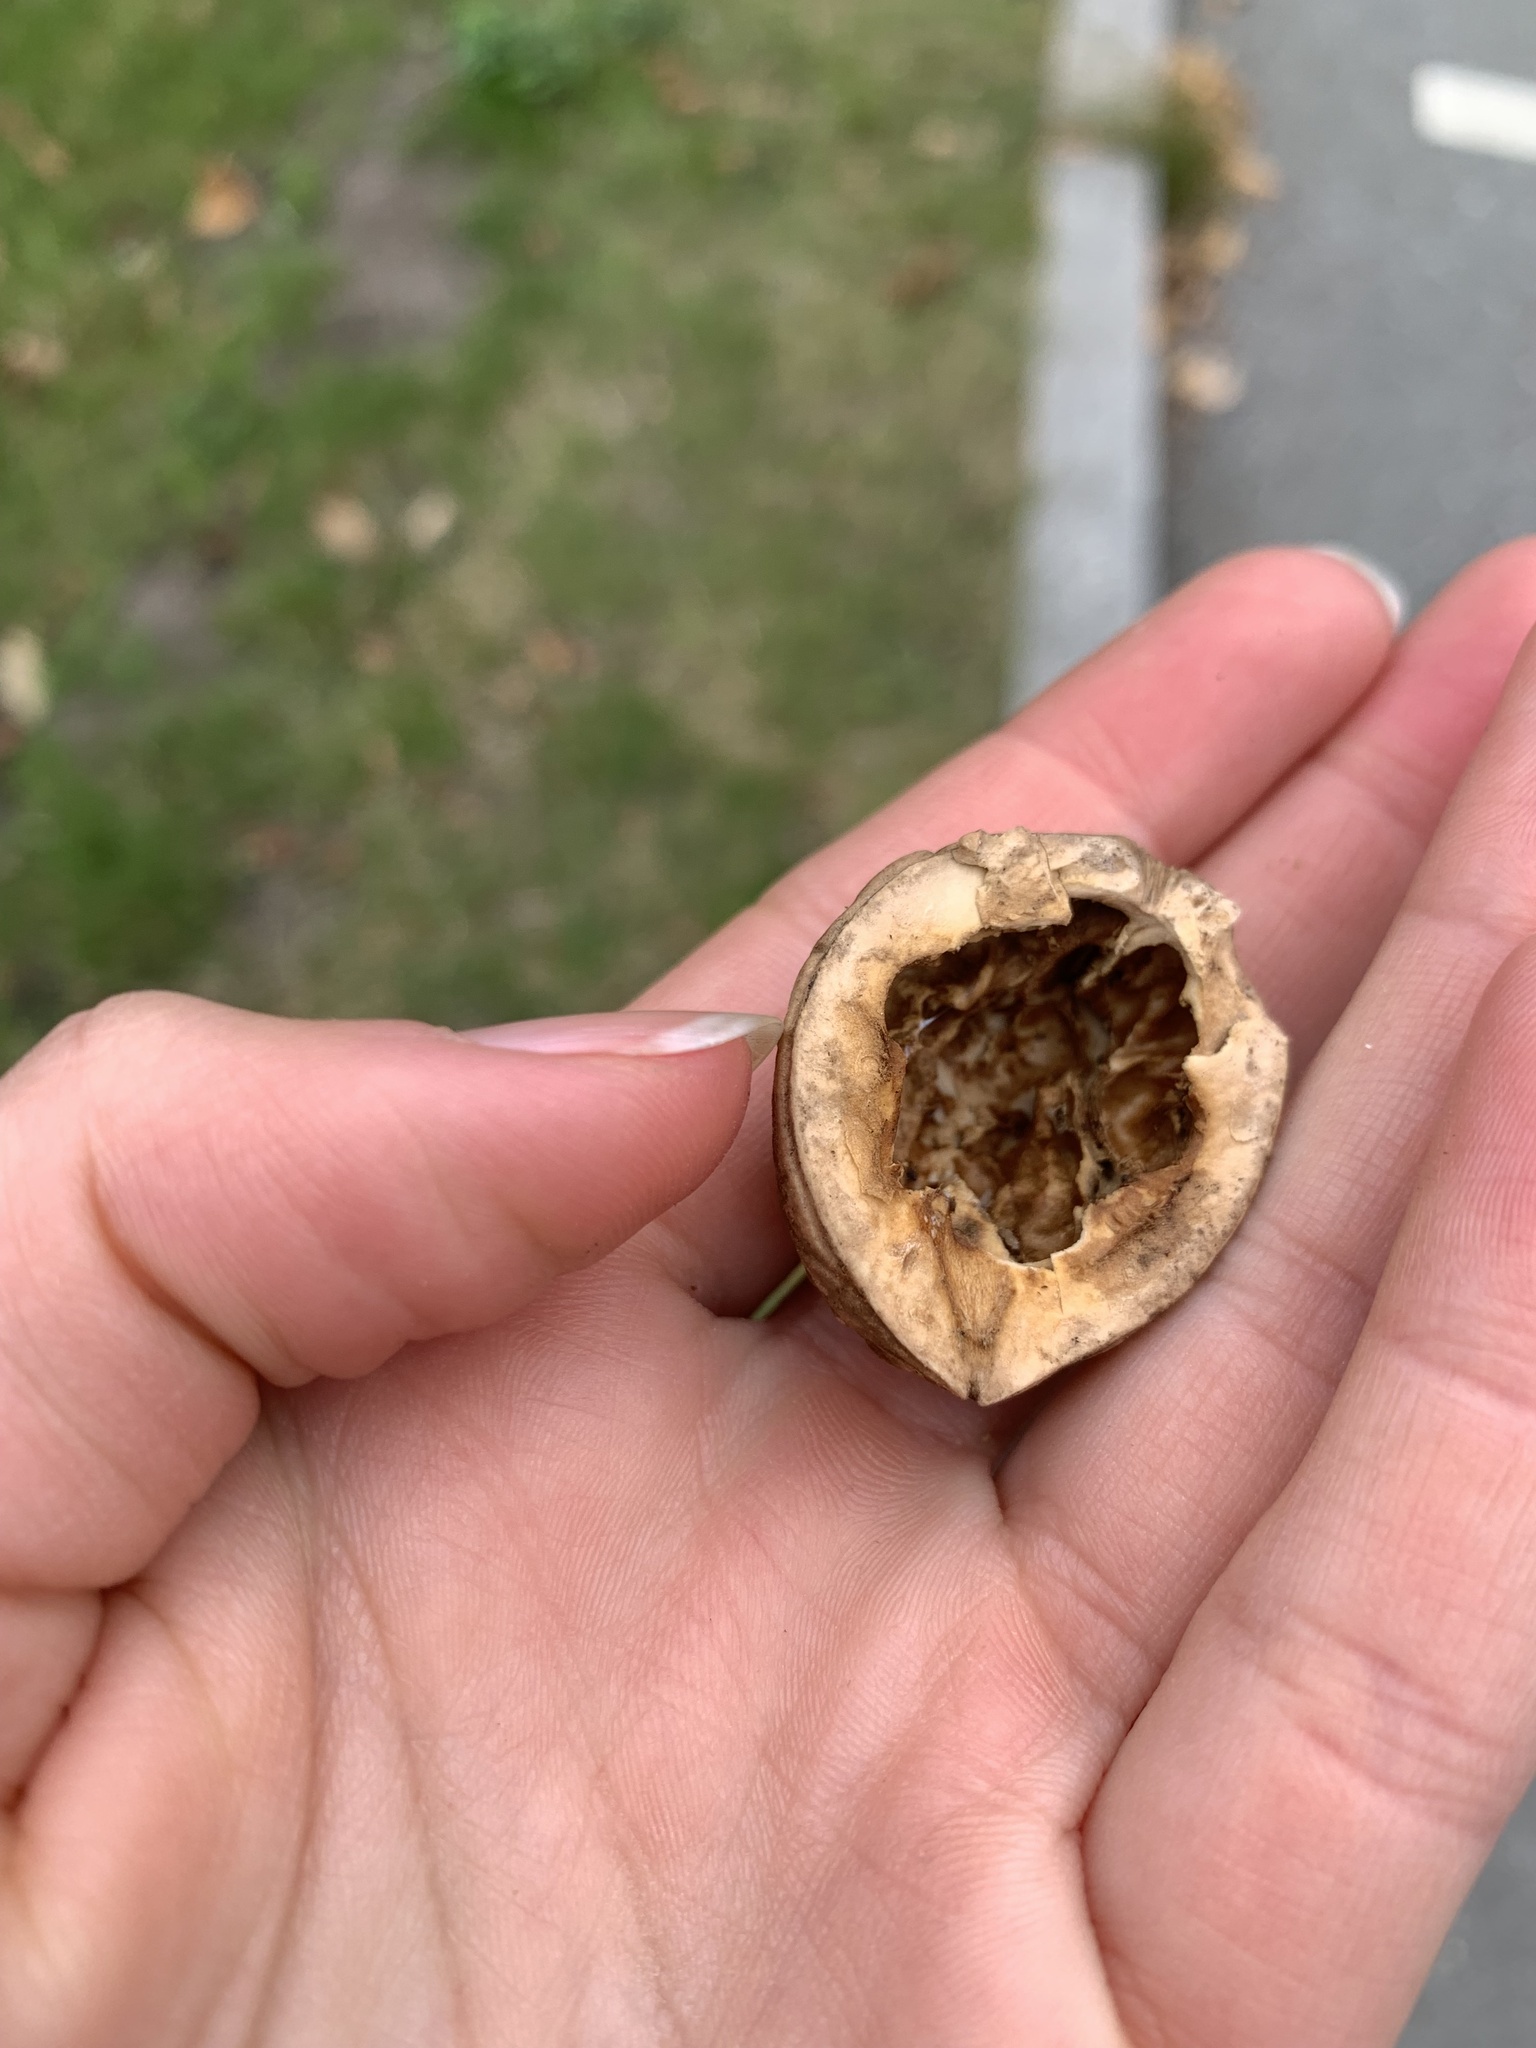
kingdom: Plantae
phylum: Tracheophyta
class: Magnoliopsida
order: Fagales
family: Juglandaceae
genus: Juglans
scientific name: Juglans regia
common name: Walnut
